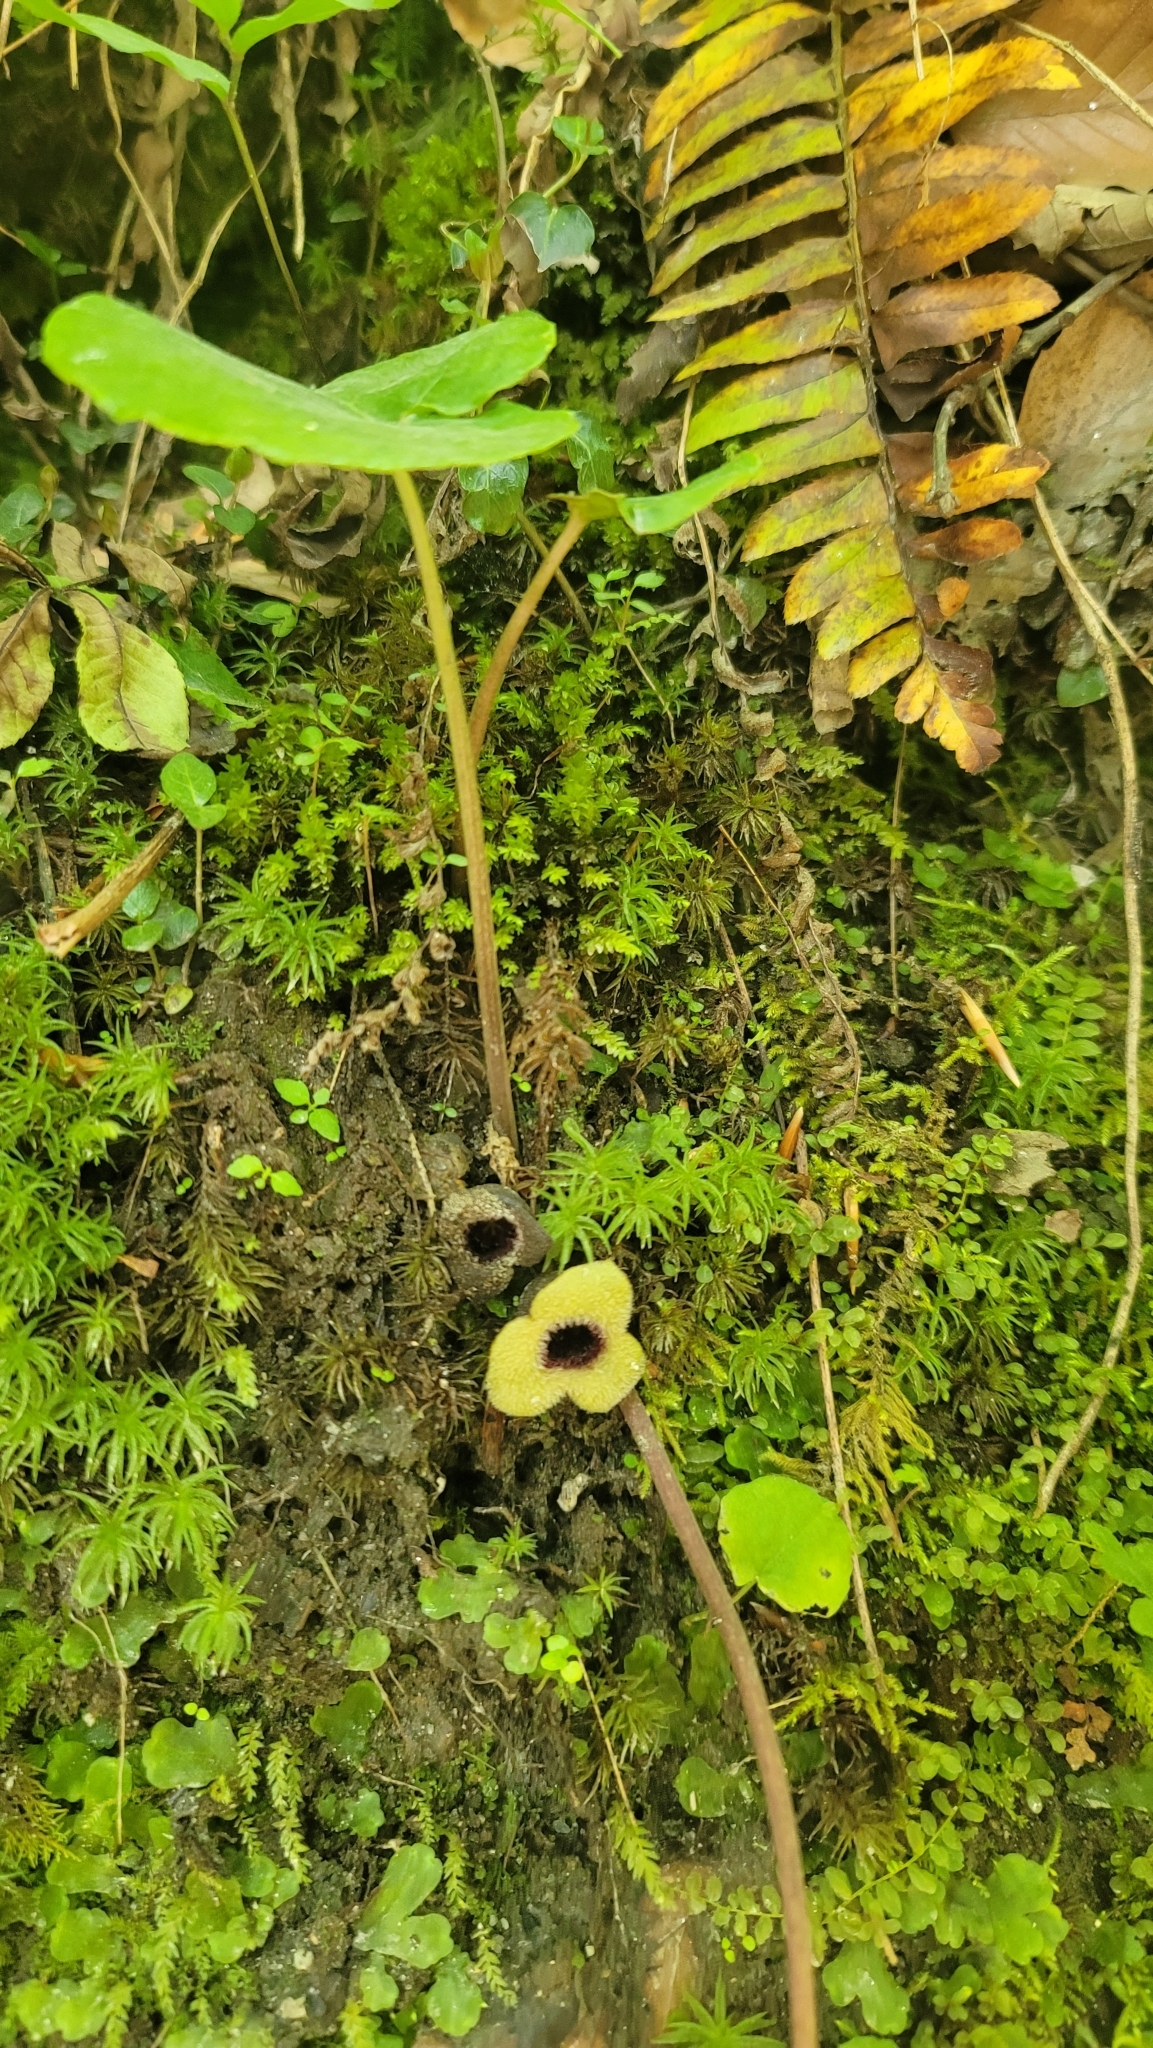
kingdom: Plantae
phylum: Tracheophyta
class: Magnoliopsida
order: Piperales
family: Aristolochiaceae
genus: Hexastylis
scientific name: Hexastylis rosei
